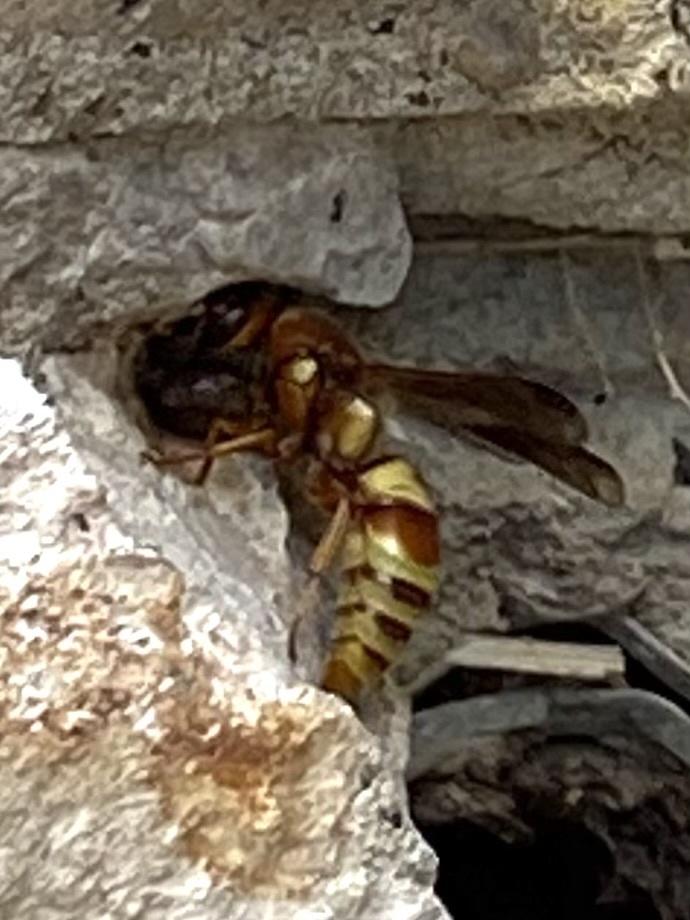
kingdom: Animalia
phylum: Arthropoda
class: Insecta
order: Hymenoptera
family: Eumenidae
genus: Euodynerus
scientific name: Euodynerus pratensis
